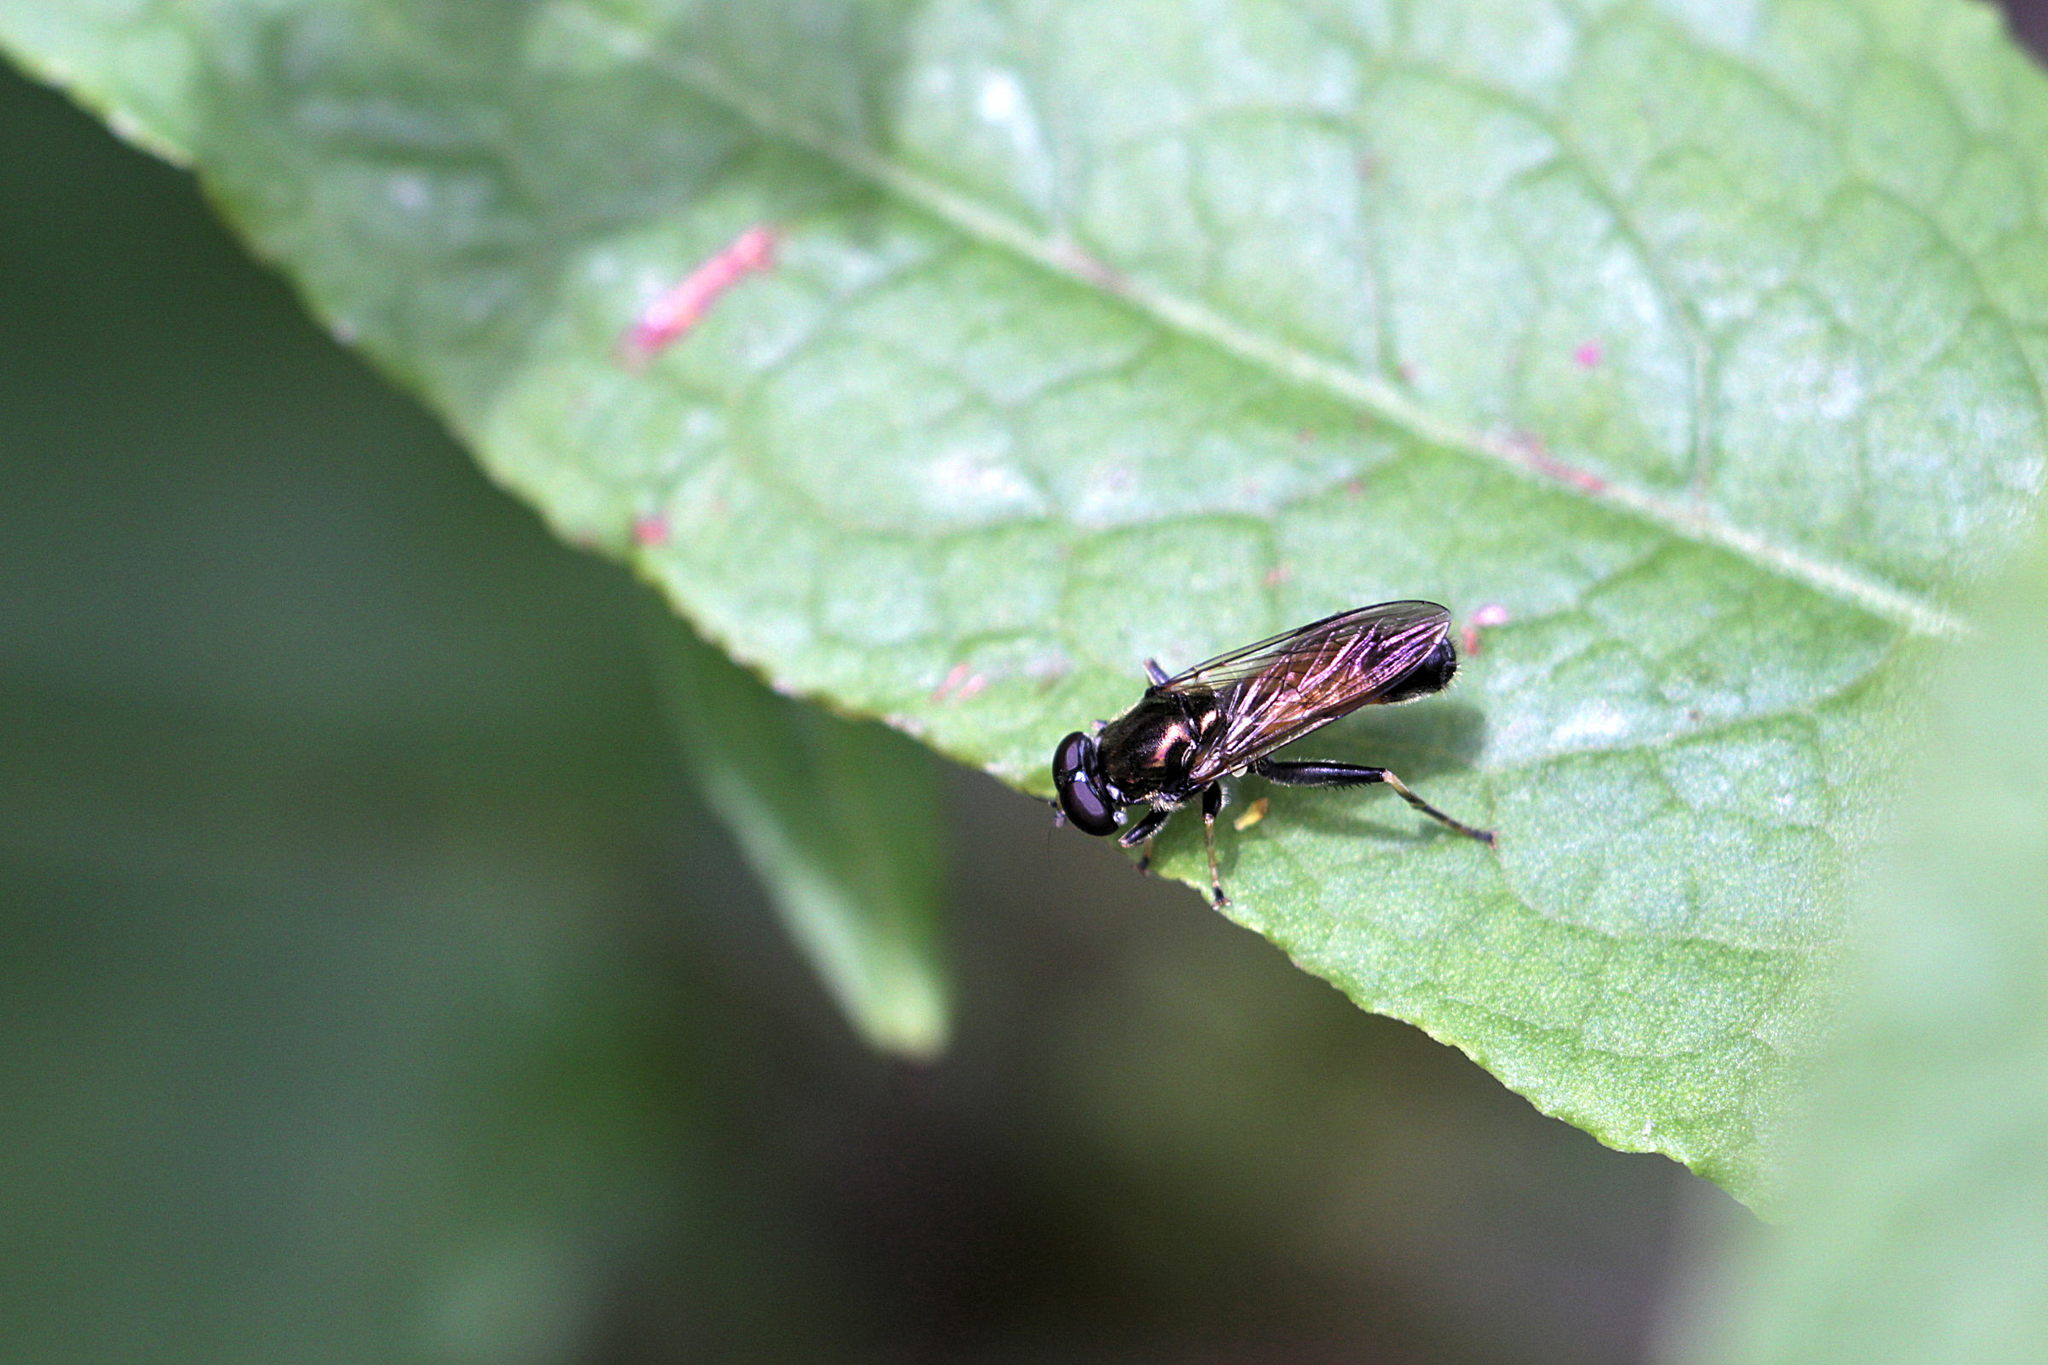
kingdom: Animalia
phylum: Arthropoda
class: Insecta
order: Diptera
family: Syrphidae
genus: Xylota
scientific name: Xylota segnis
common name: Brown-toed forest fly
